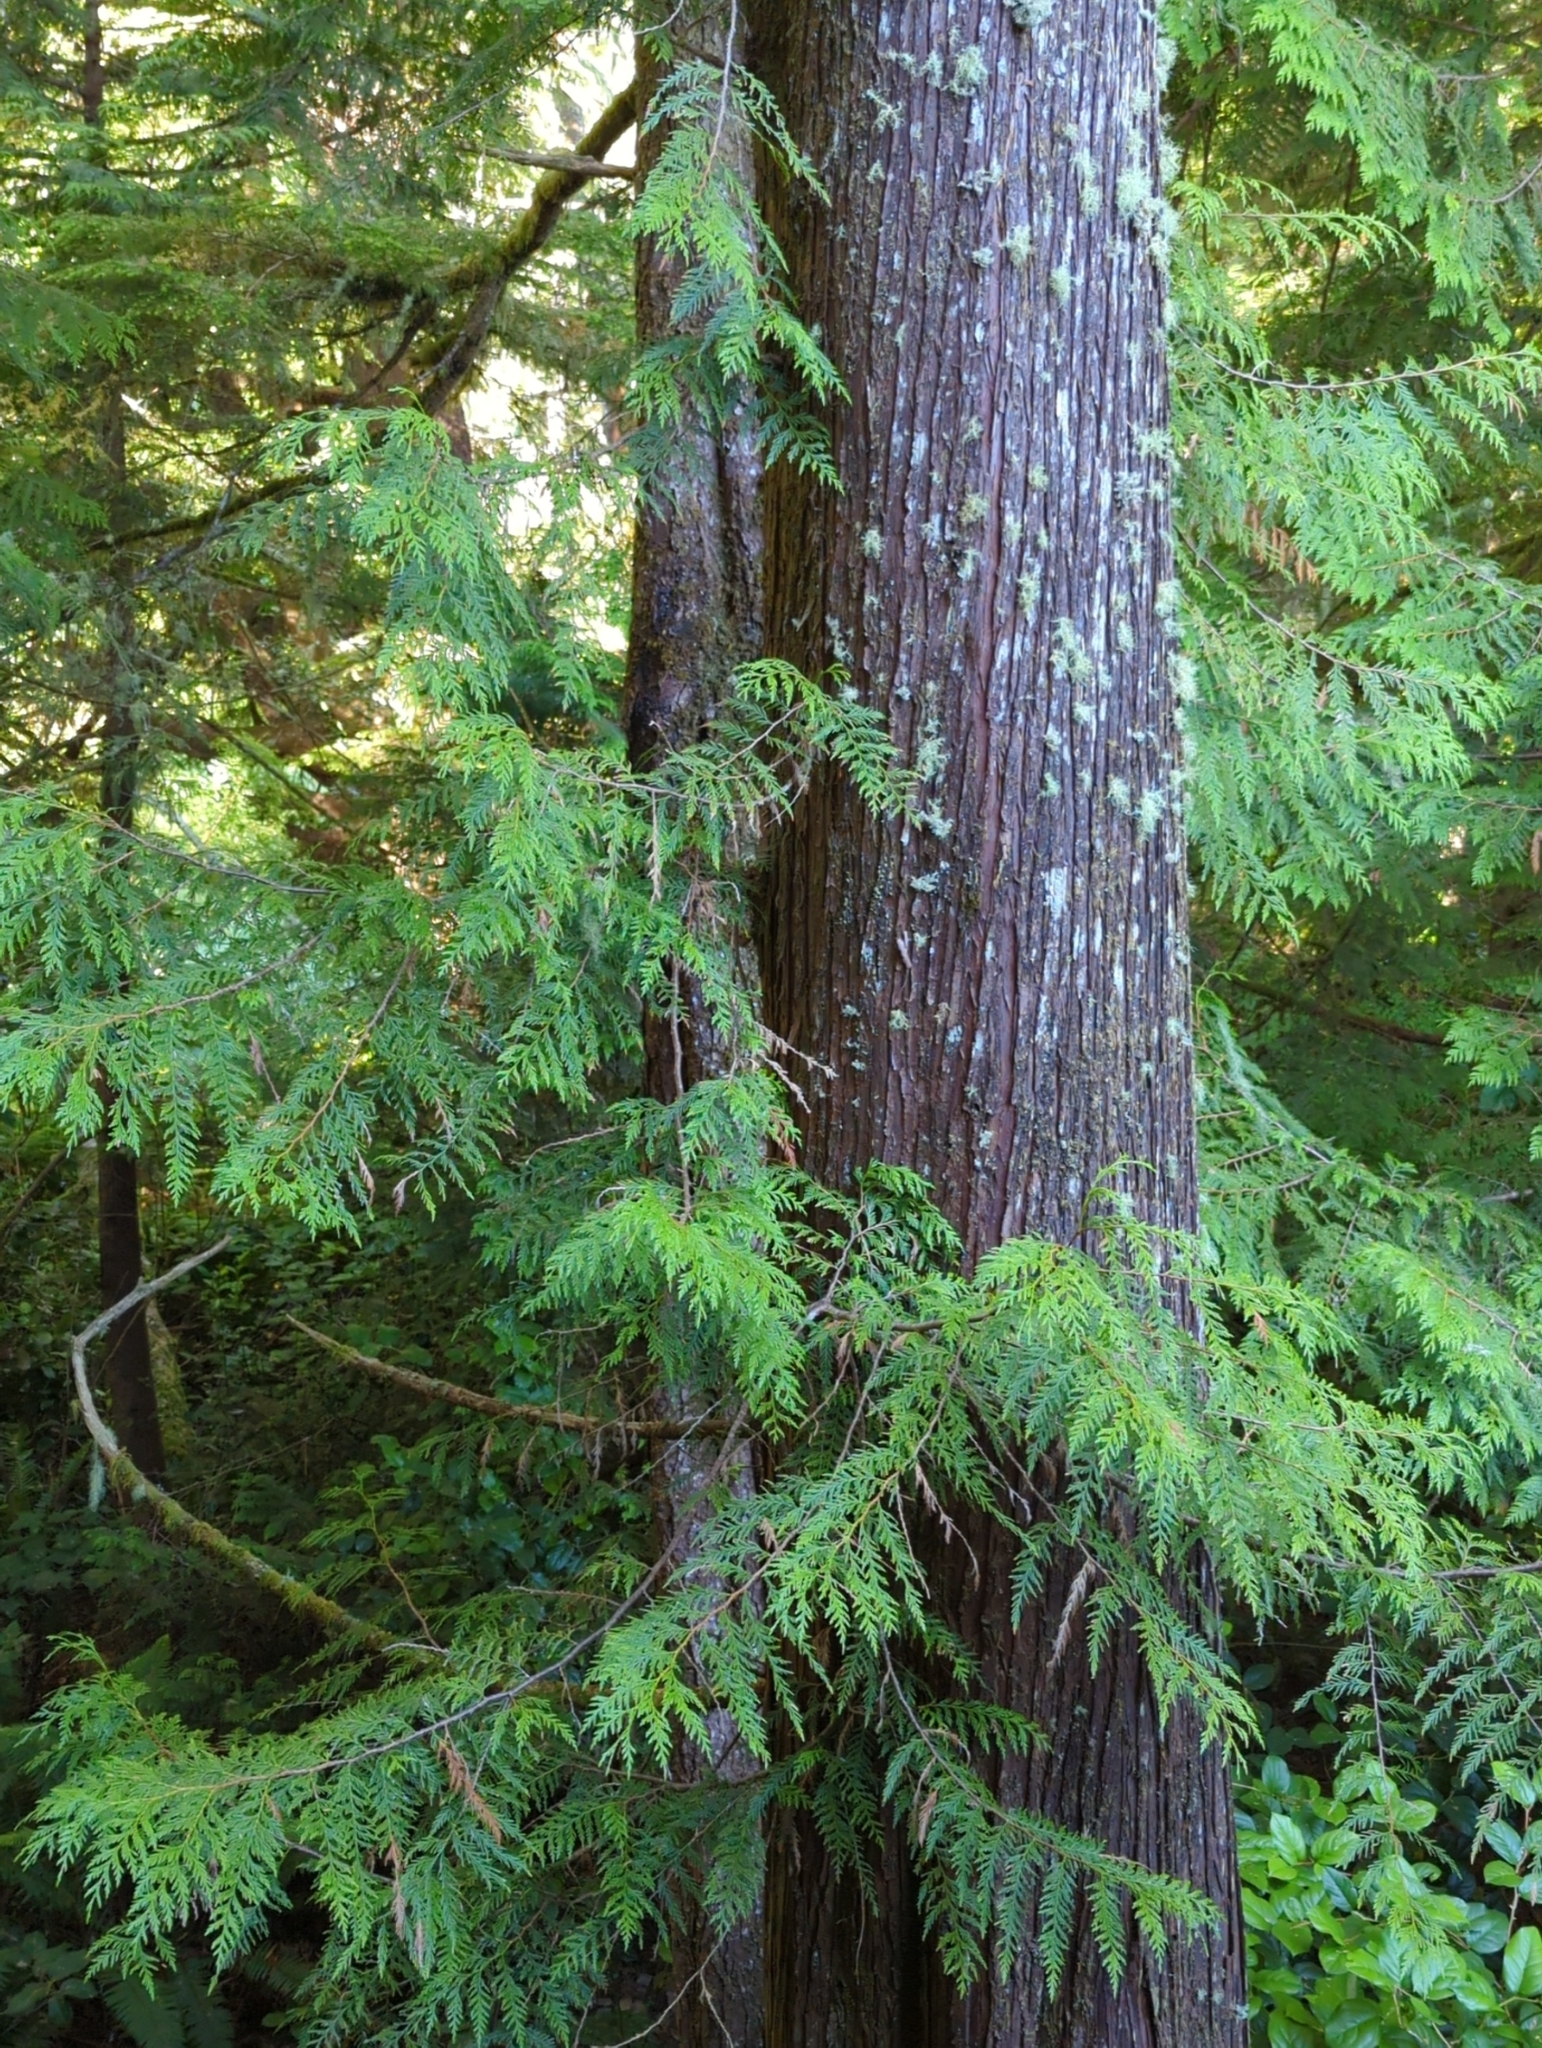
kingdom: Plantae
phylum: Tracheophyta
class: Pinopsida
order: Pinales
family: Cupressaceae
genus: Thuja
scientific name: Thuja plicata
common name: Western red-cedar
